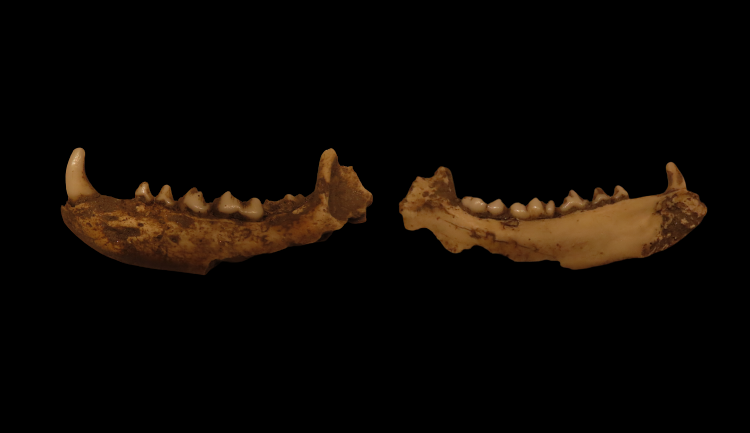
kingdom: Animalia
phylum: Chordata
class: Mammalia
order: Carnivora
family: Procyonidae
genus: Procyon
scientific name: Procyon lotor
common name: Raccoon
